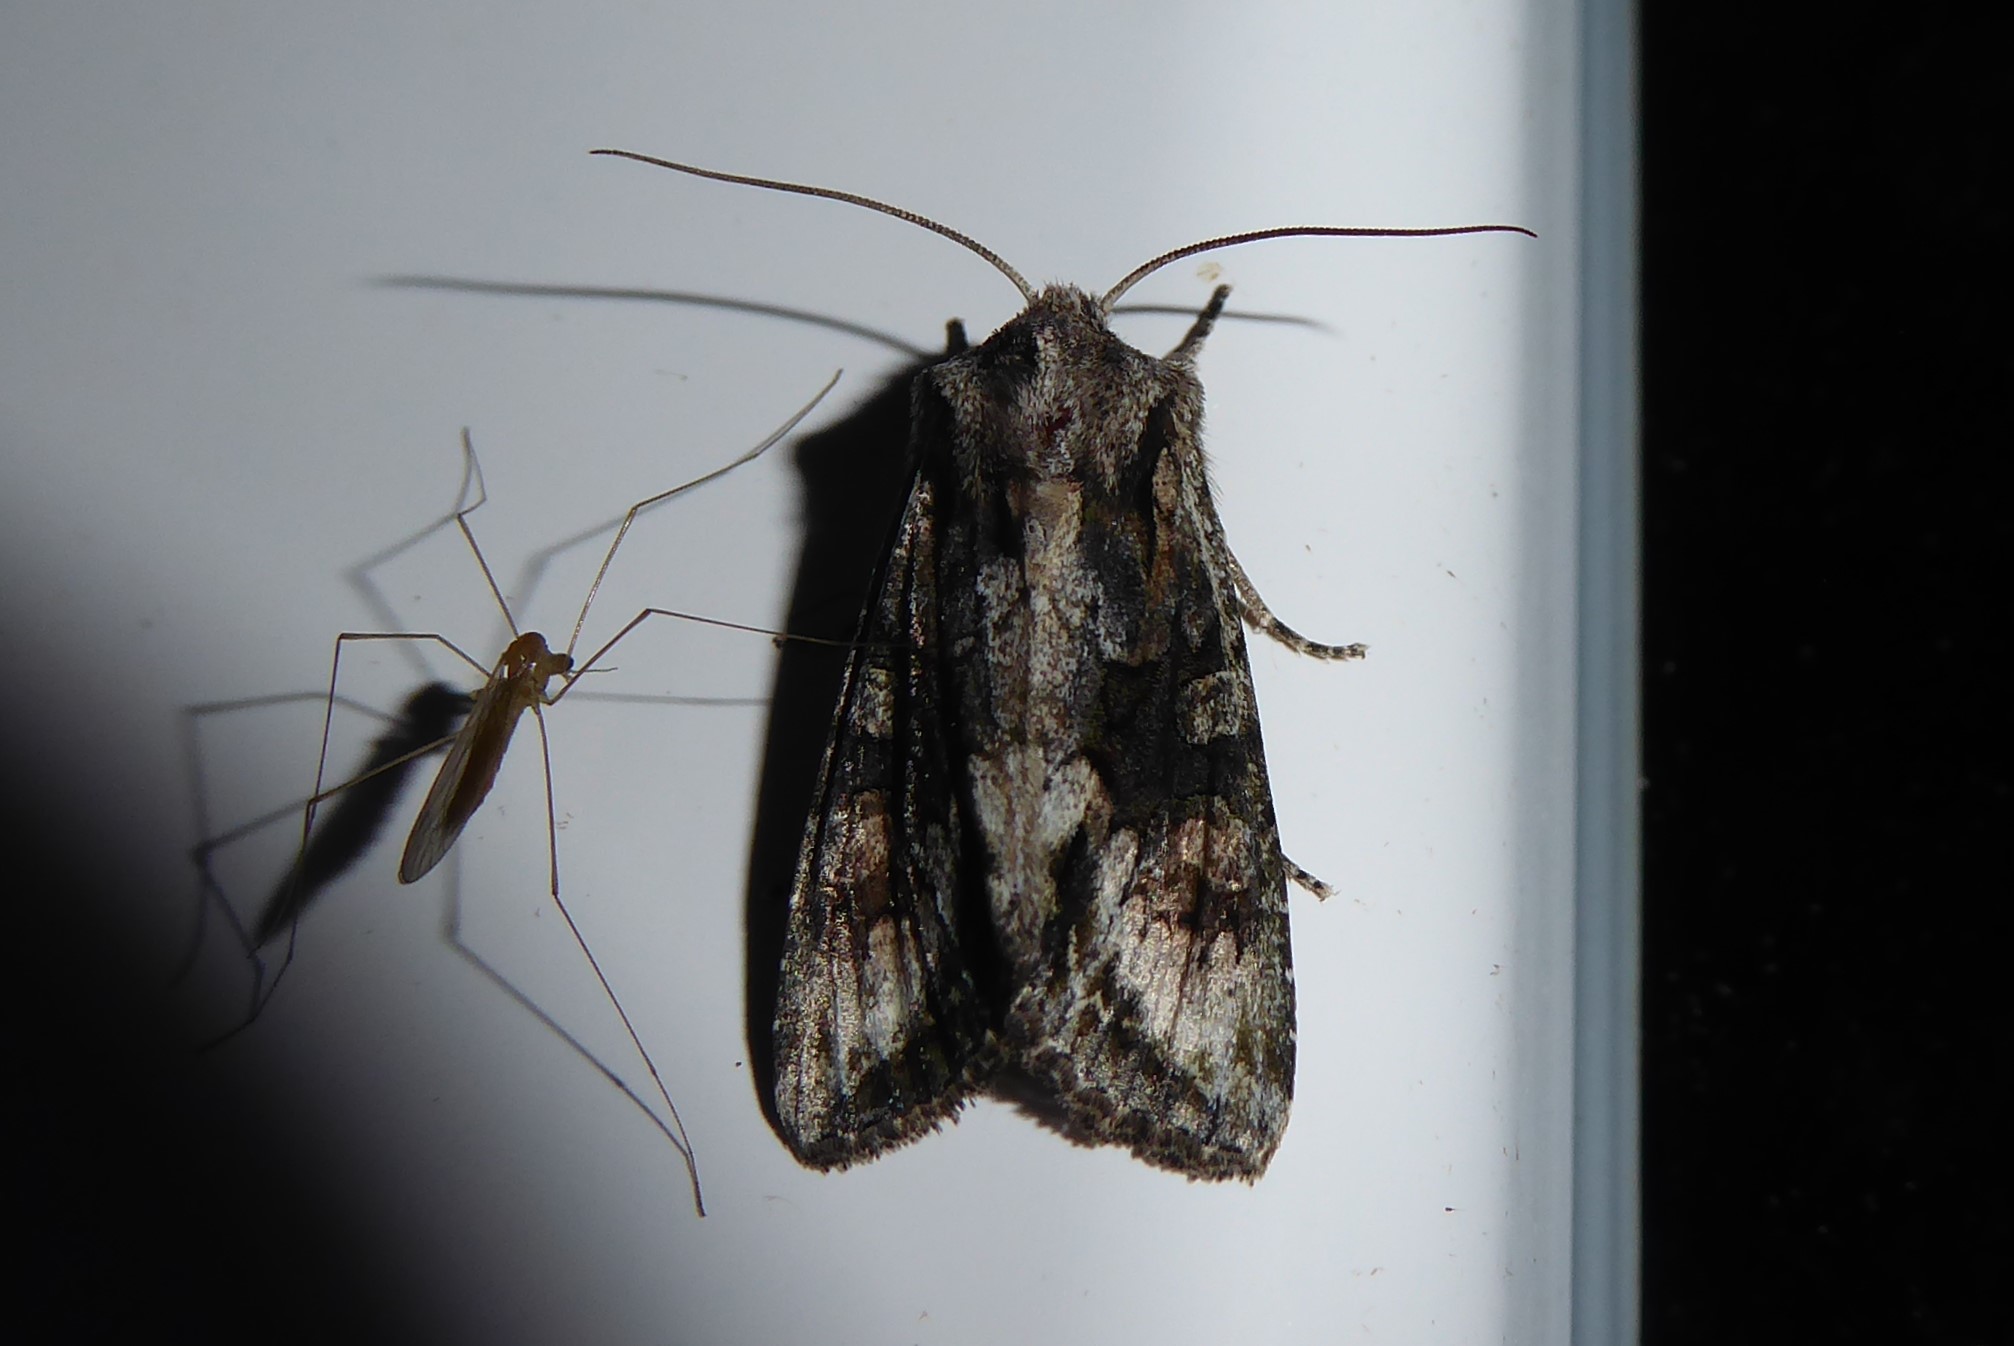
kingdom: Animalia
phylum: Arthropoda
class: Insecta
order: Lepidoptera
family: Noctuidae
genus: Ichneutica
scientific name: Ichneutica mutans
